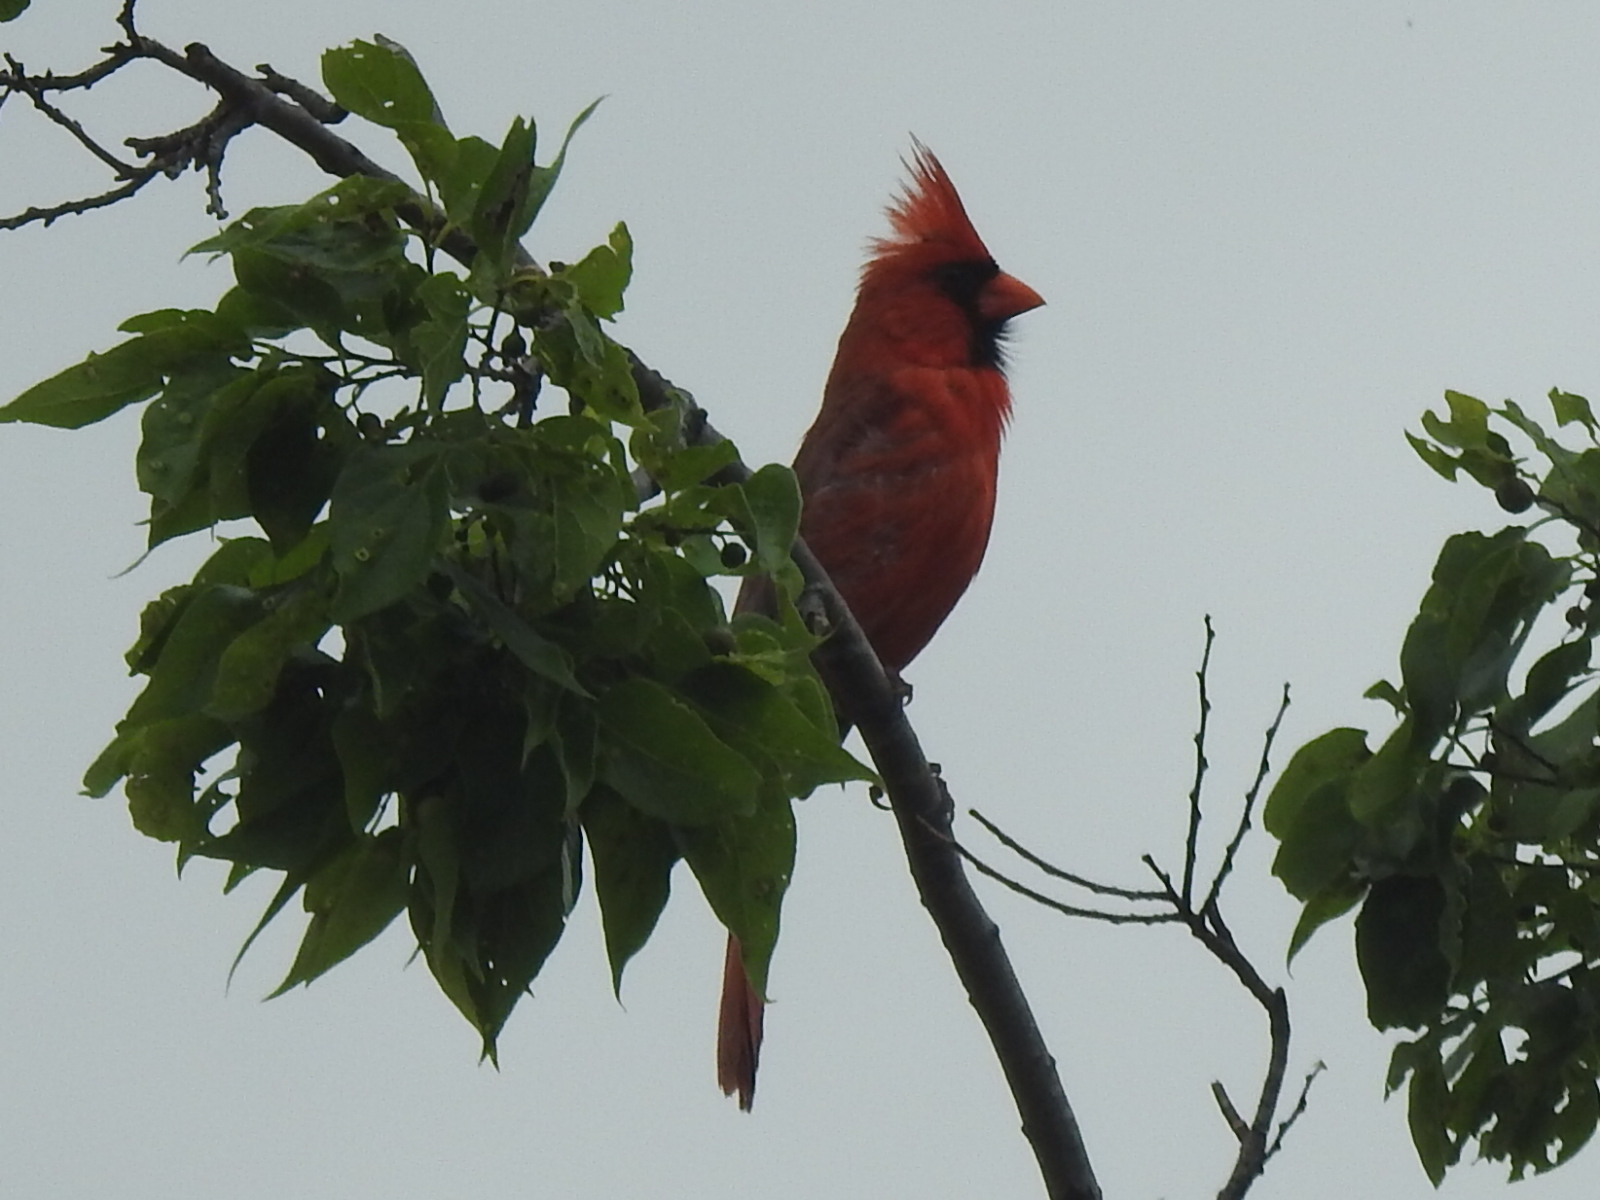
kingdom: Animalia
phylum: Chordata
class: Aves
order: Passeriformes
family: Cardinalidae
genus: Cardinalis
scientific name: Cardinalis cardinalis
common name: Northern cardinal
